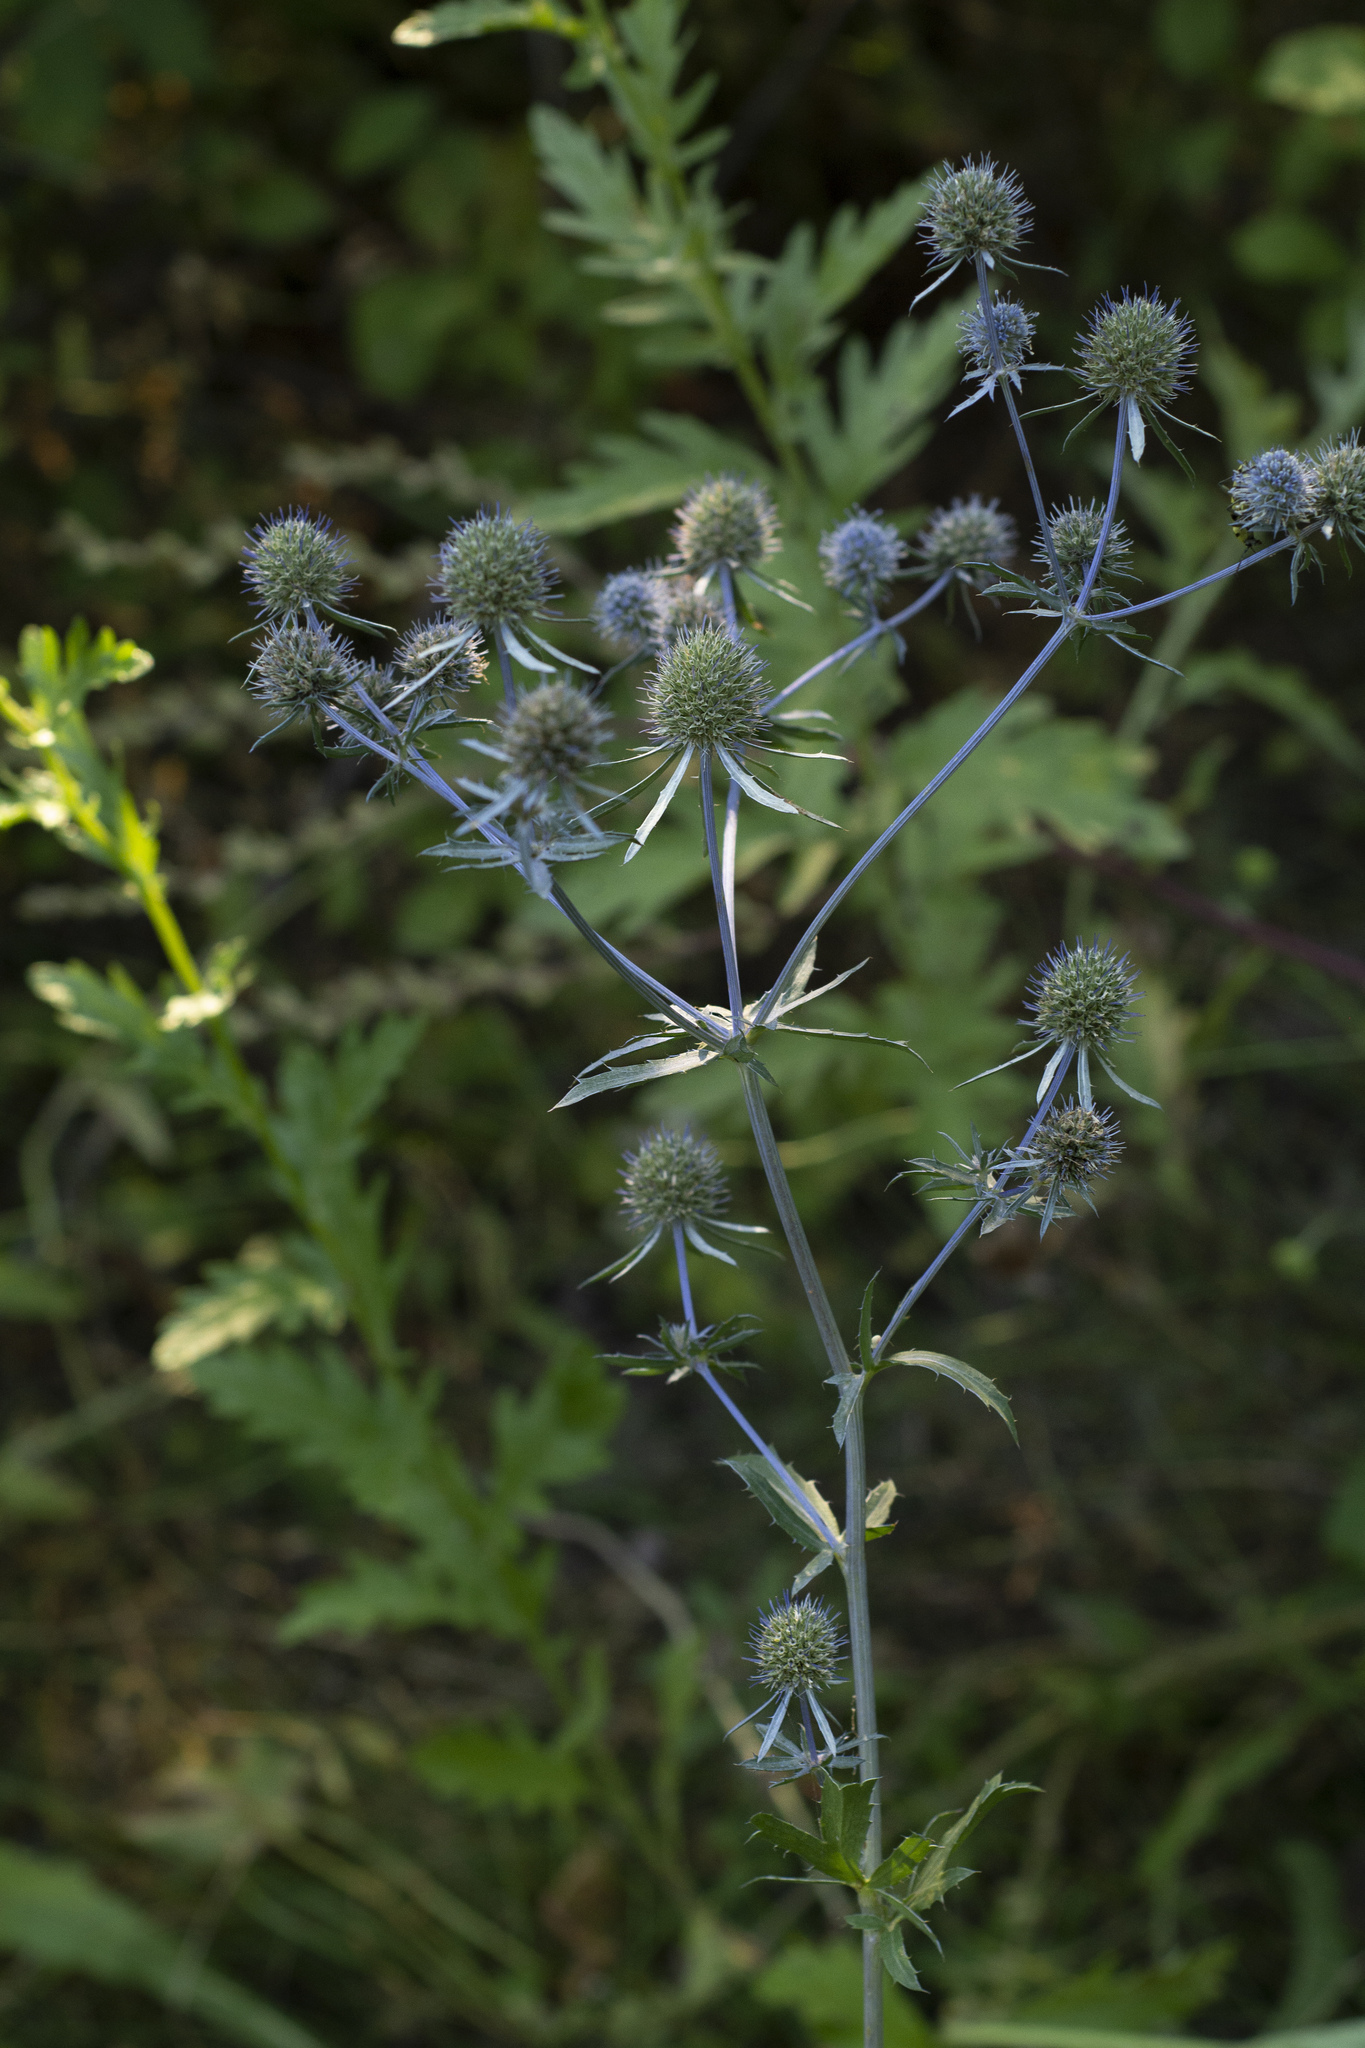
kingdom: Plantae
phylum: Tracheophyta
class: Magnoliopsida
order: Apiales
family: Apiaceae
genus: Eryngium
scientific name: Eryngium planum
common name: Blue eryngo
